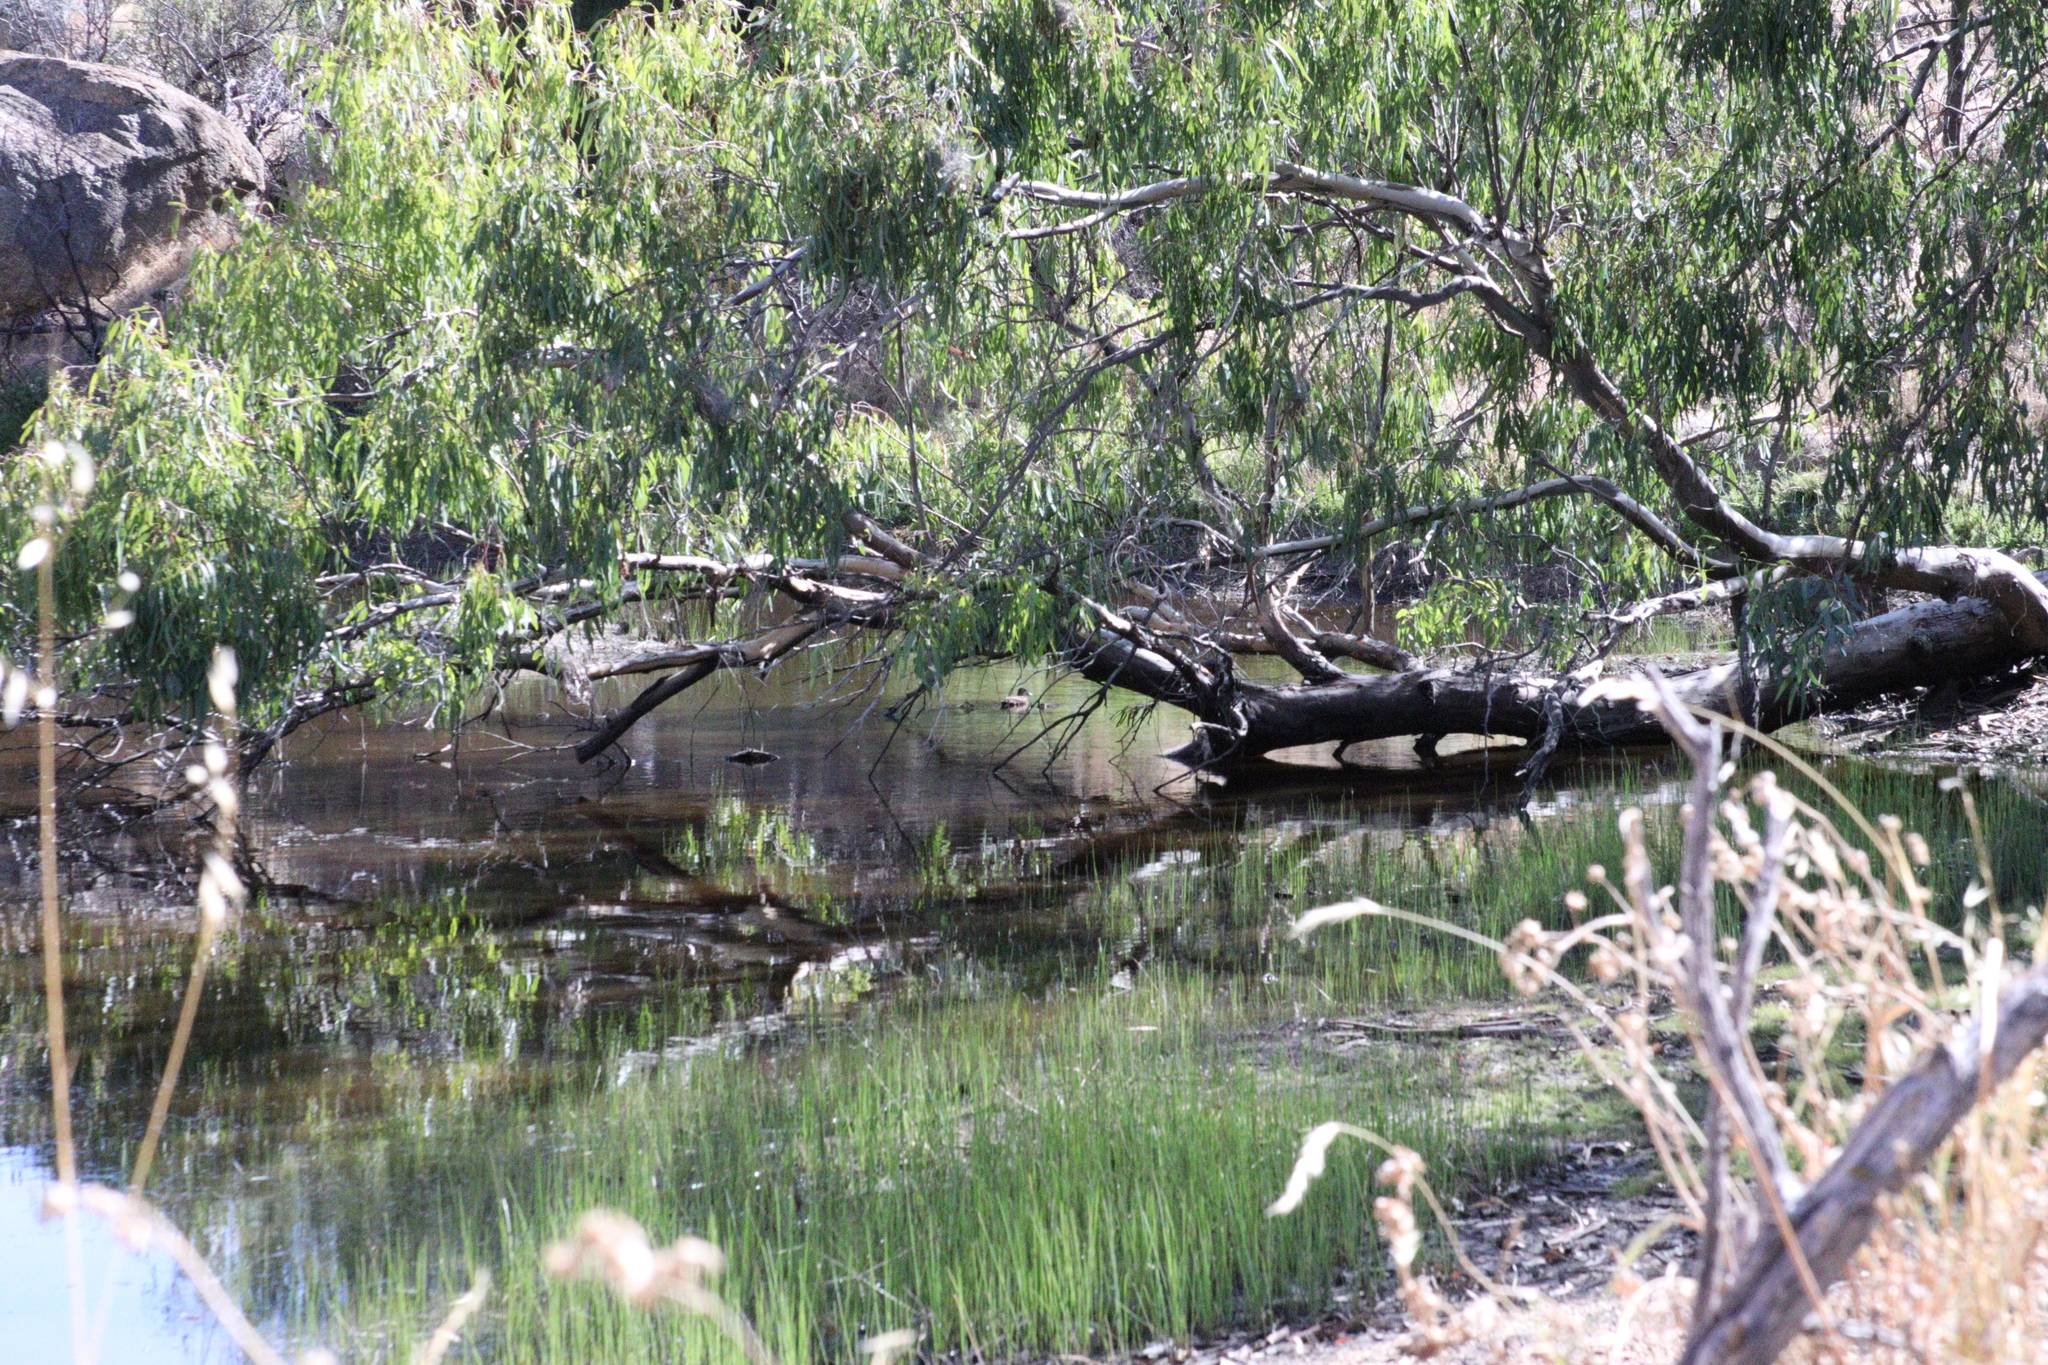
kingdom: Animalia
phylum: Chordata
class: Aves
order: Anseriformes
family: Anatidae
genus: Anas
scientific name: Anas superciliosa
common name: Pacific black duck
